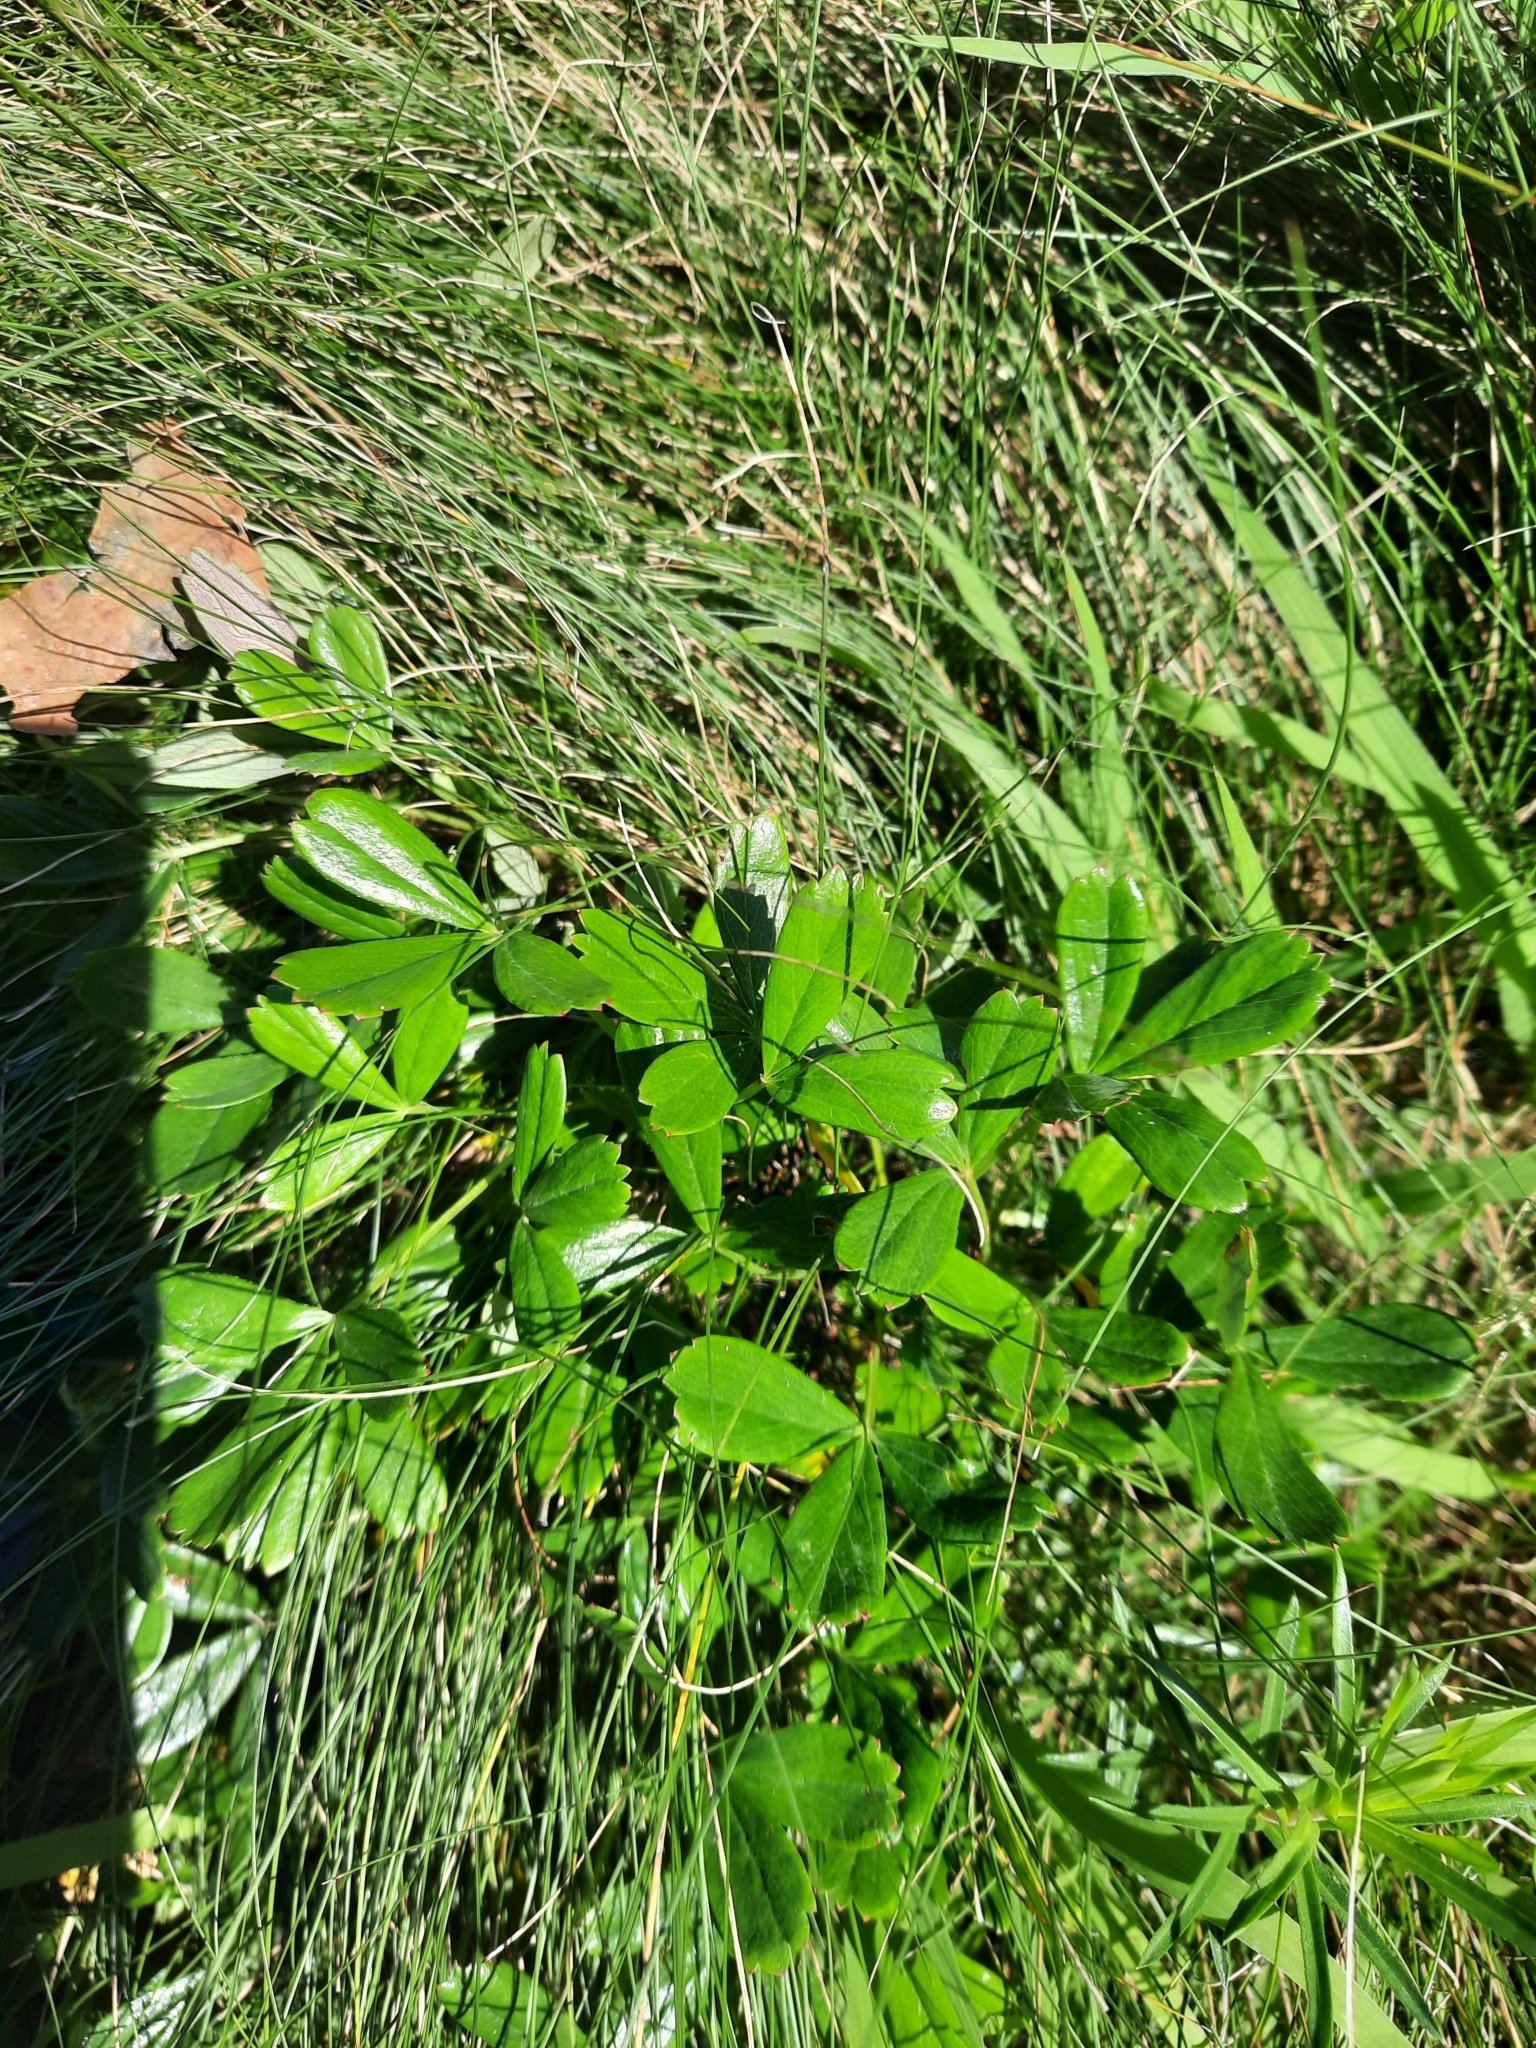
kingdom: Plantae
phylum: Tracheophyta
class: Magnoliopsida
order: Rosales
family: Rosaceae
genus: Sibbaldia
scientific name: Sibbaldia tridentata
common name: Three-toothed cinquefoil
